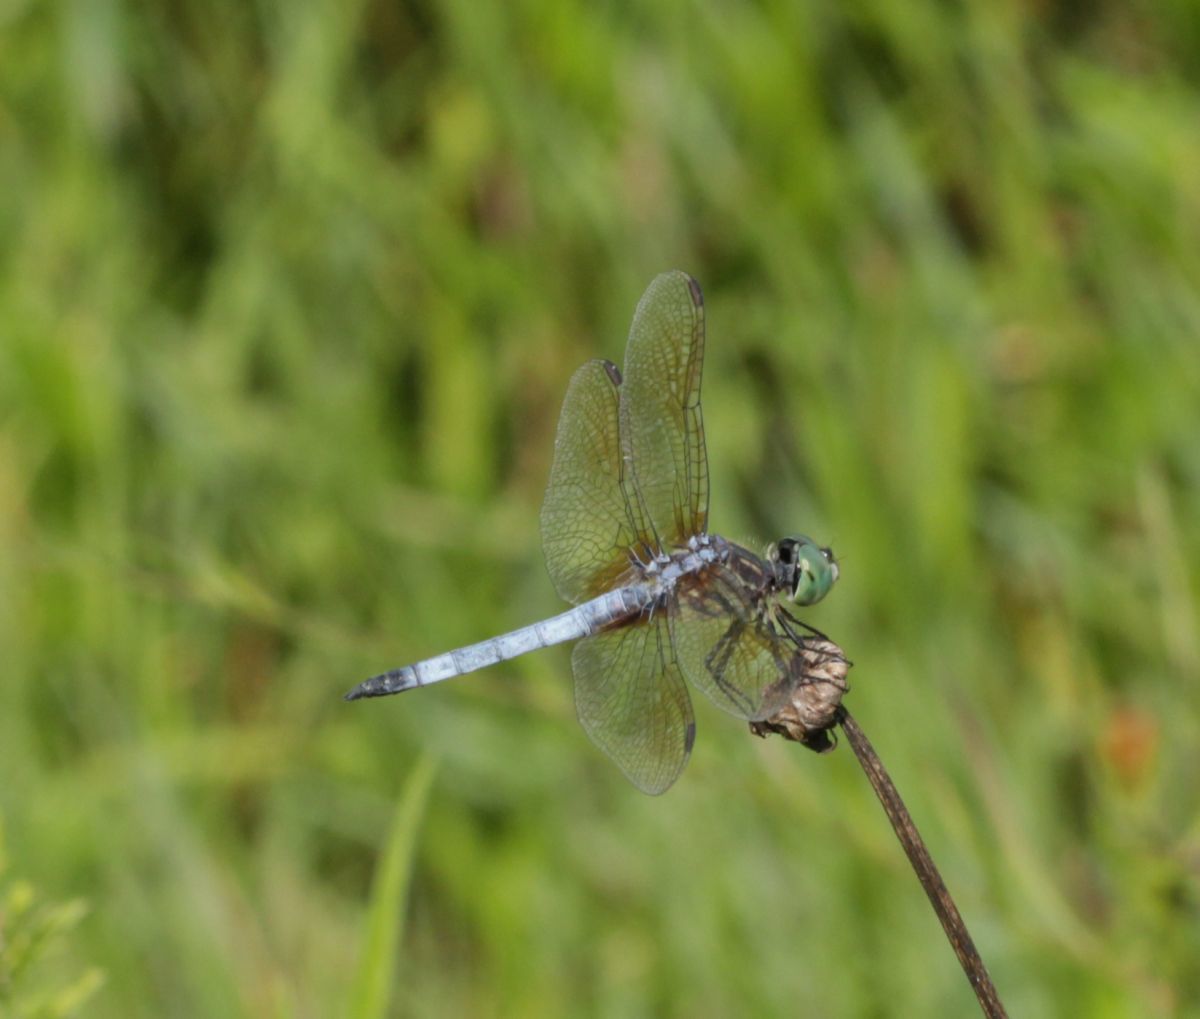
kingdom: Animalia
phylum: Arthropoda
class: Insecta
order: Odonata
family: Libellulidae
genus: Pachydiplax
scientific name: Pachydiplax longipennis
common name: Blue dasher
